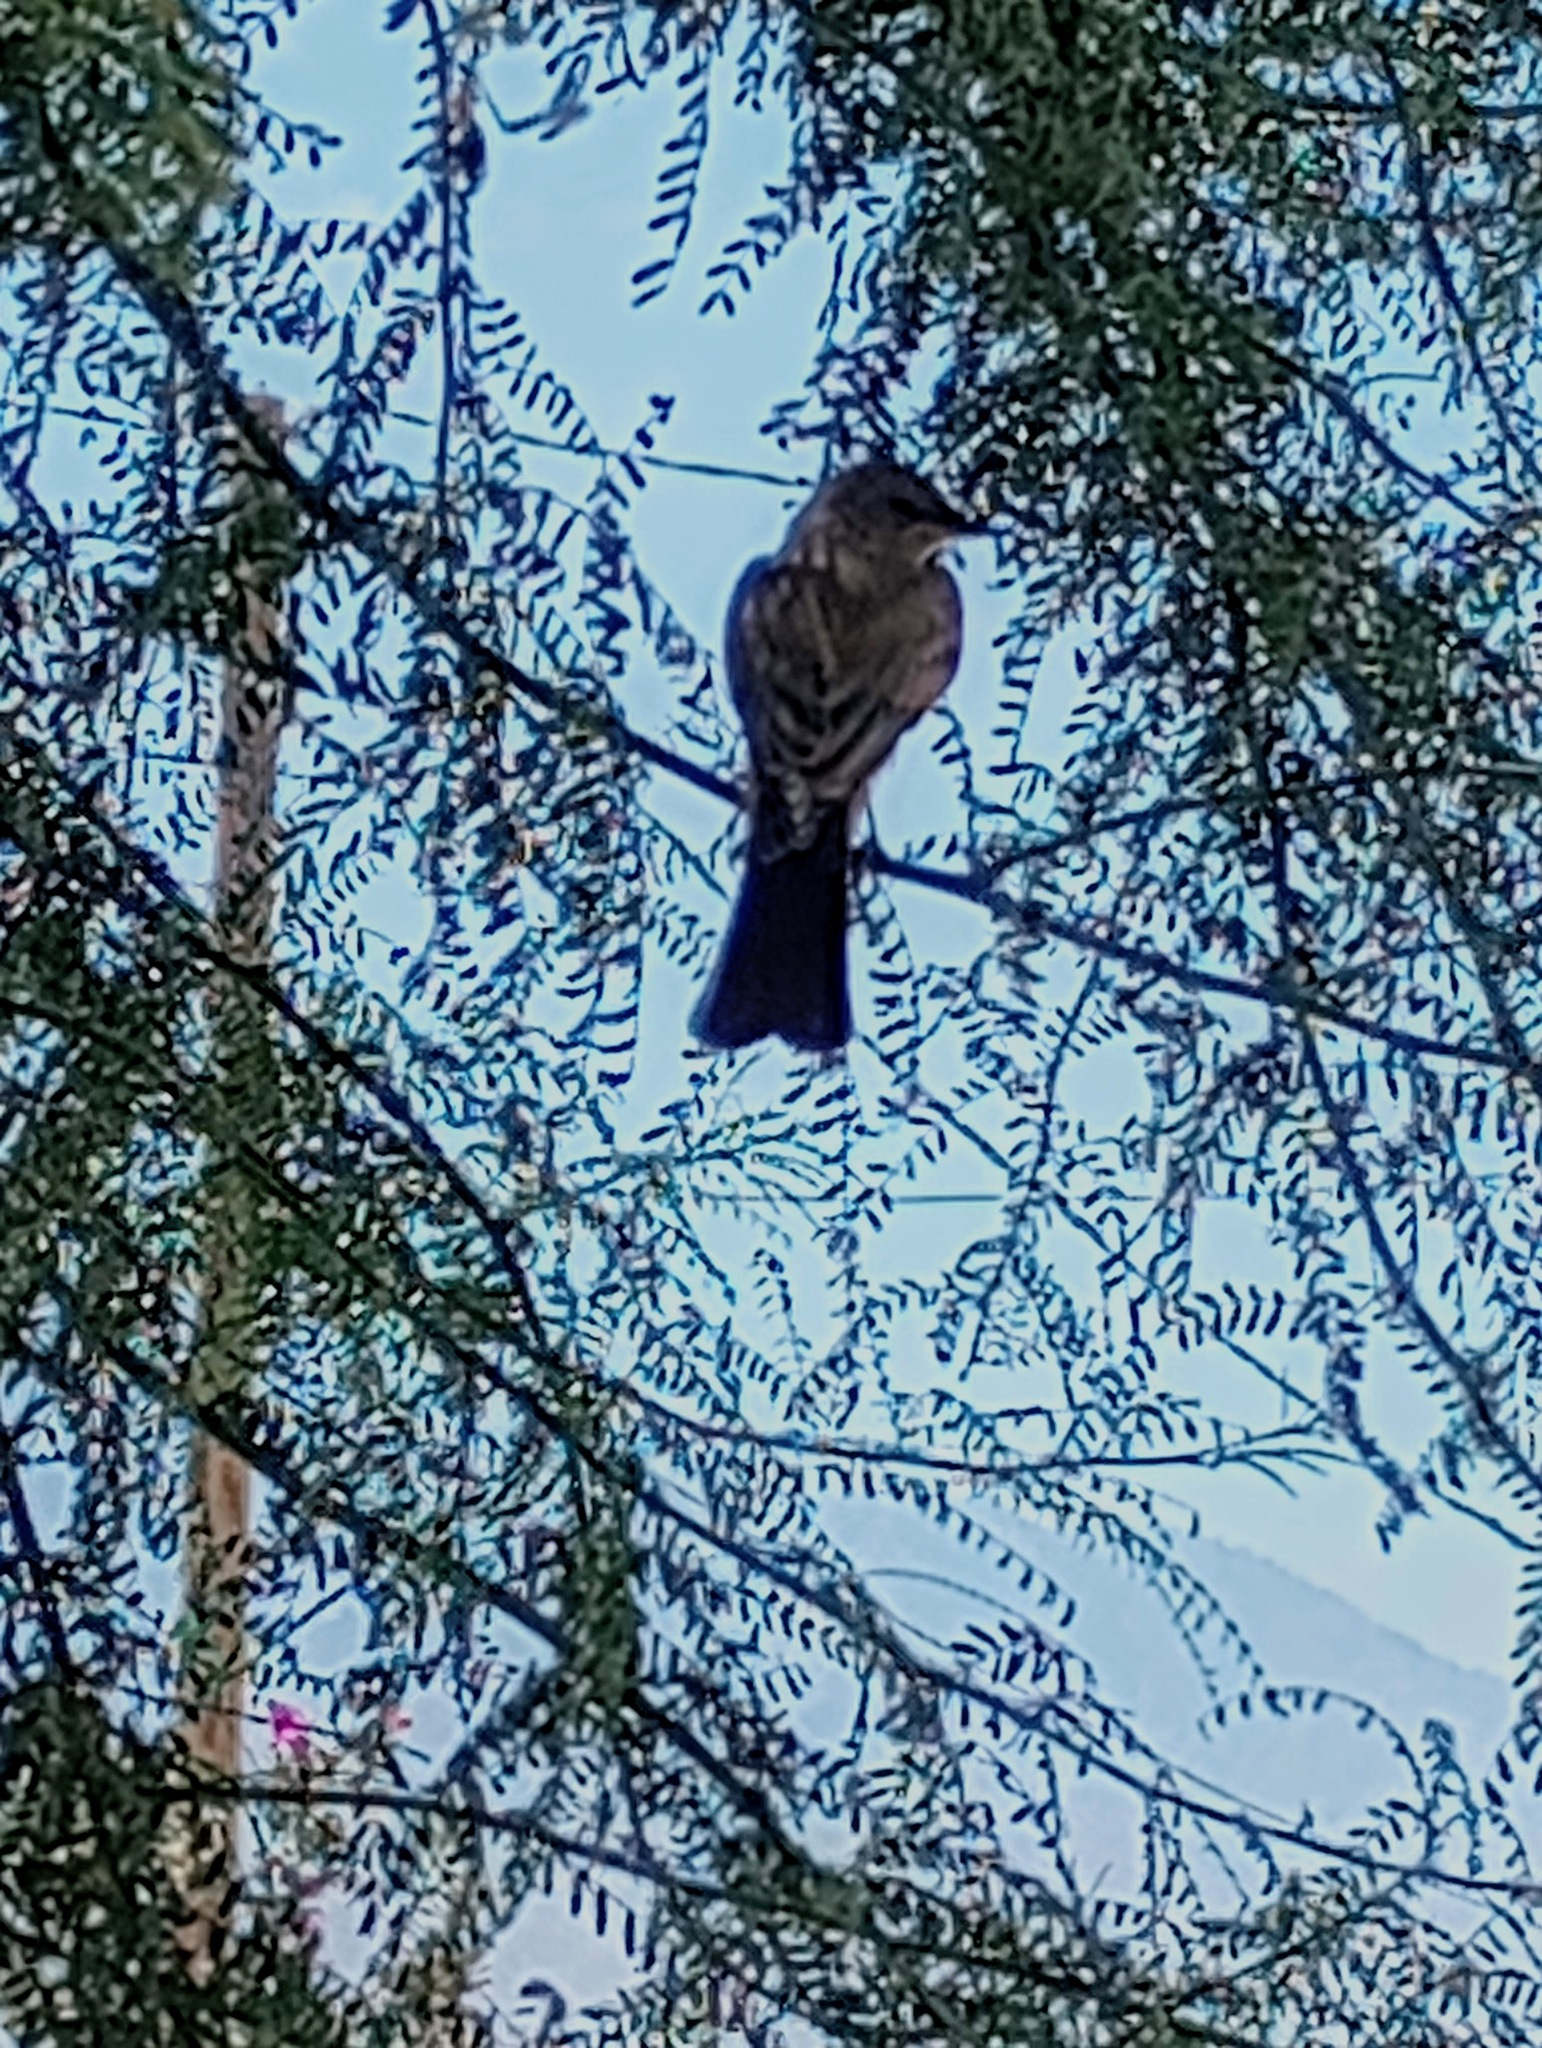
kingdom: Animalia
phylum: Chordata
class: Aves
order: Passeriformes
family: Tyrannidae
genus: Sayornis
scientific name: Sayornis saya
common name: Say's phoebe
